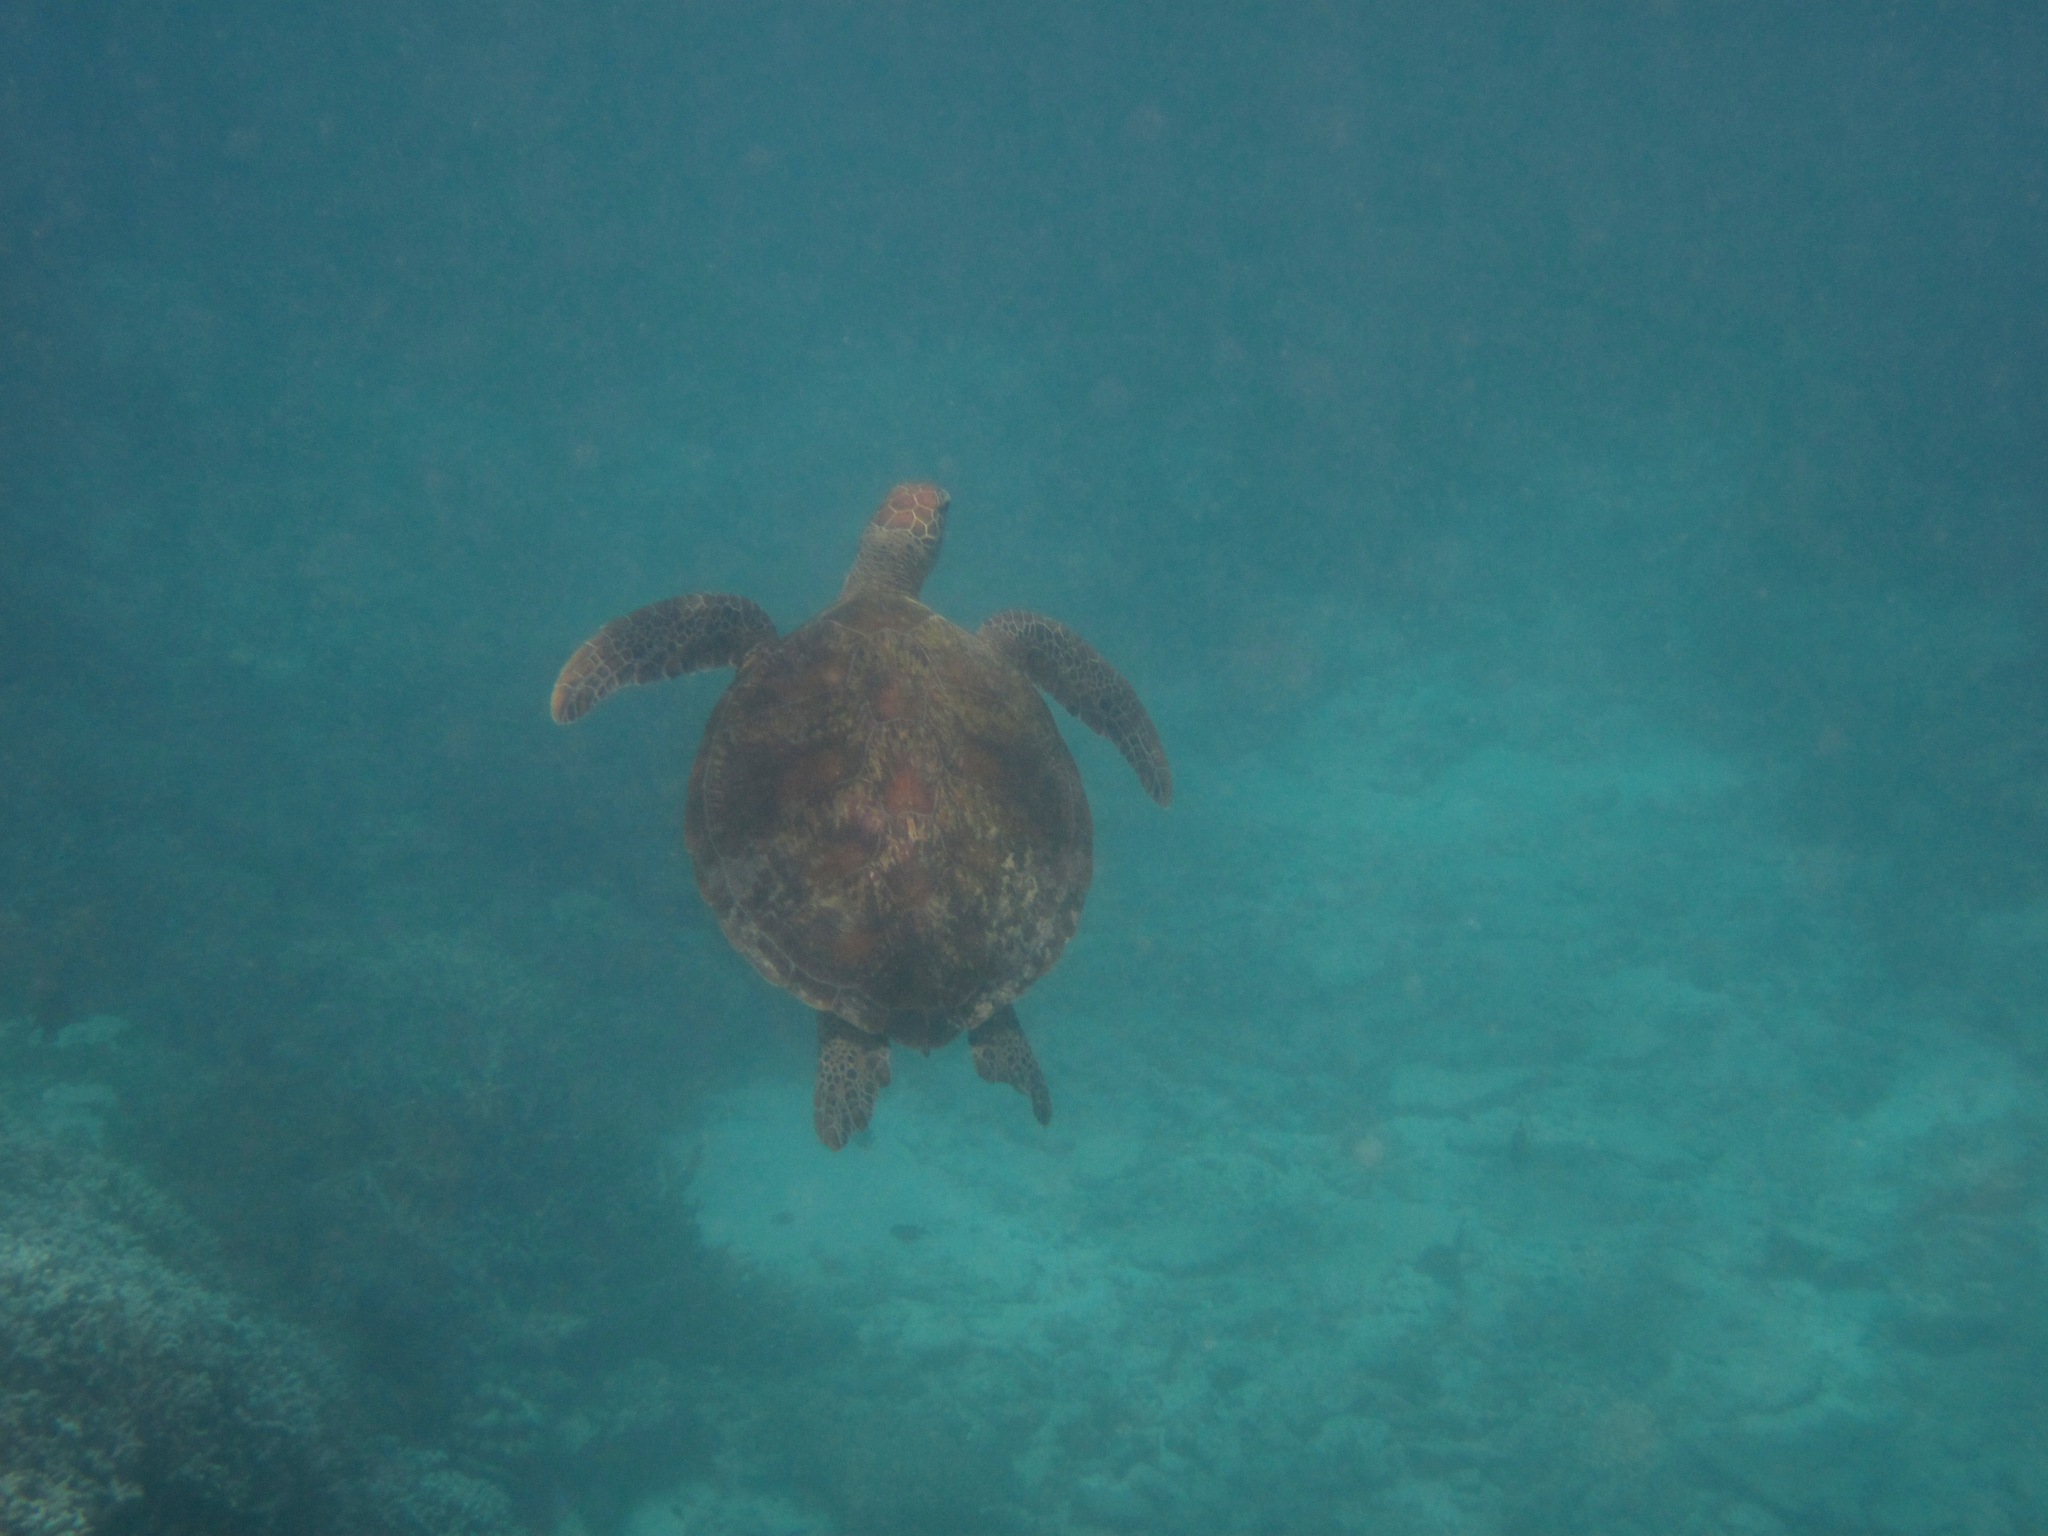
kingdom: Animalia
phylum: Chordata
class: Testudines
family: Cheloniidae
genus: Chelonia
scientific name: Chelonia mydas
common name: Green turtle
